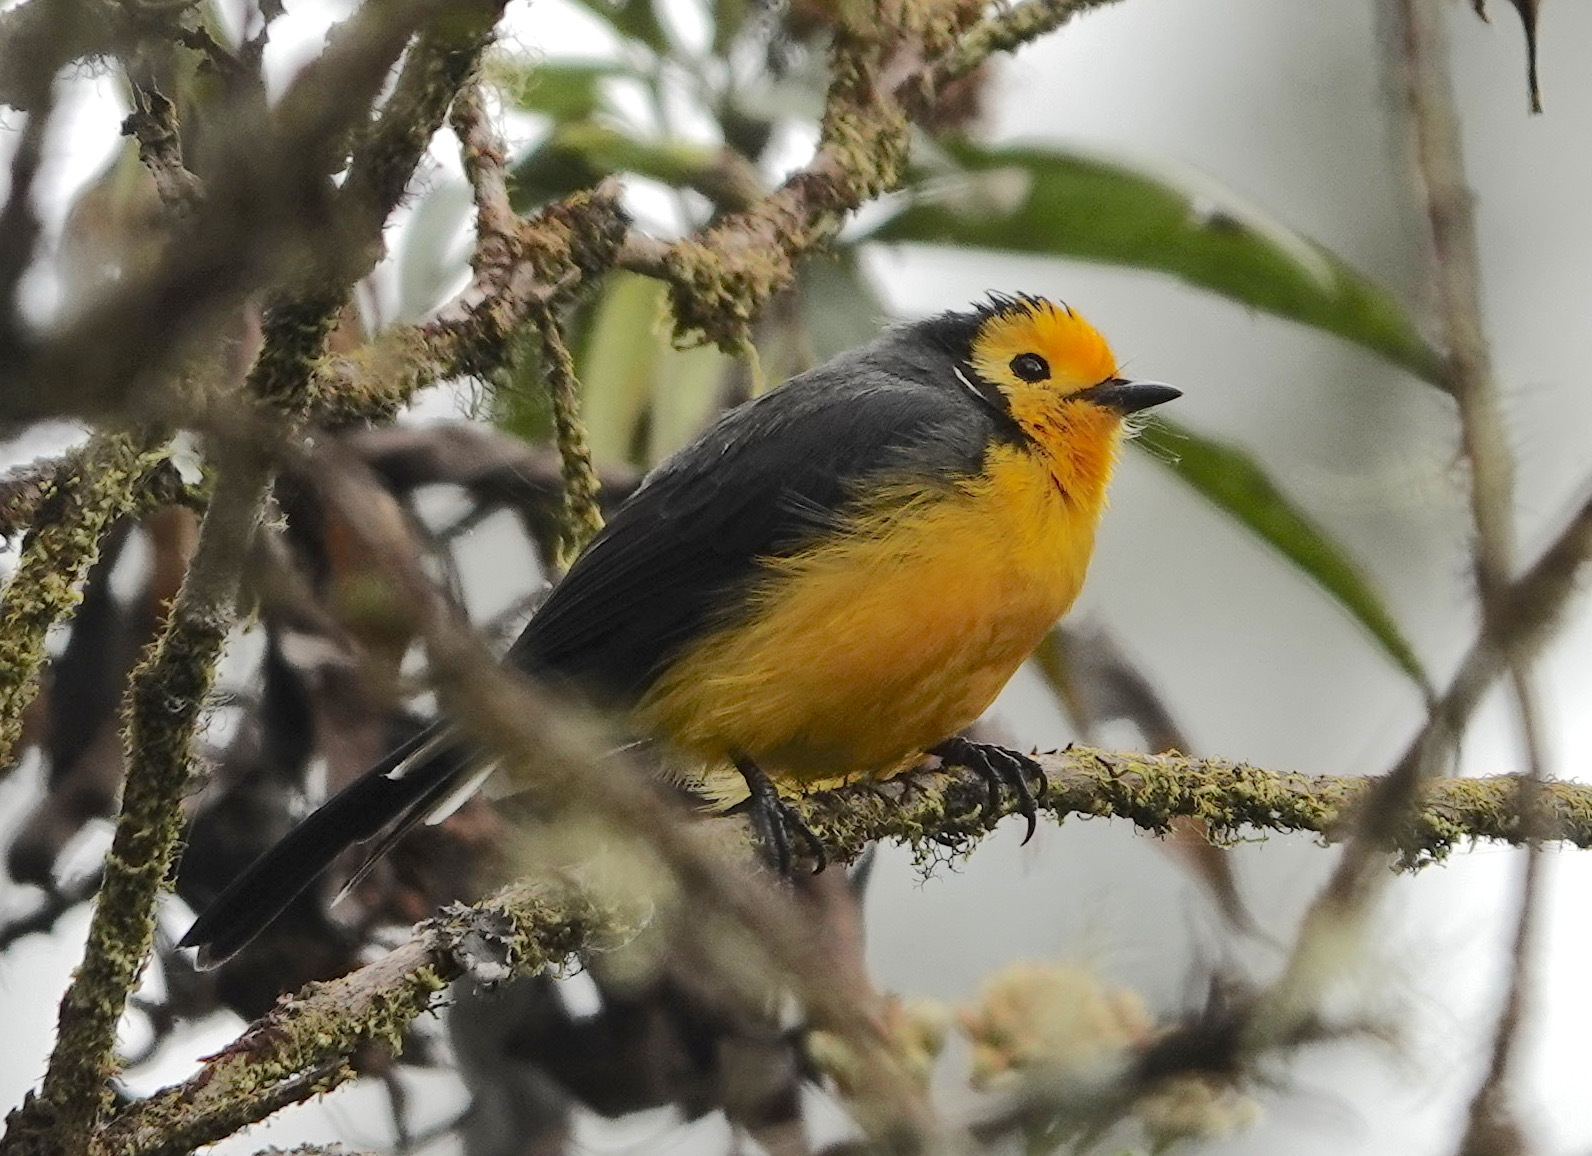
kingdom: Animalia
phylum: Chordata
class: Aves
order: Passeriformes
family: Parulidae
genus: Myioborus
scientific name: Myioborus ornatus
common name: Golden-fronted whitestart
